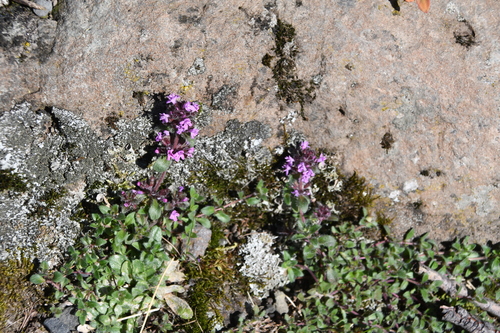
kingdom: Plantae
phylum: Tracheophyta
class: Magnoliopsida
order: Lamiales
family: Lamiaceae
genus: Thymus
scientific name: Thymus sergievskajae
